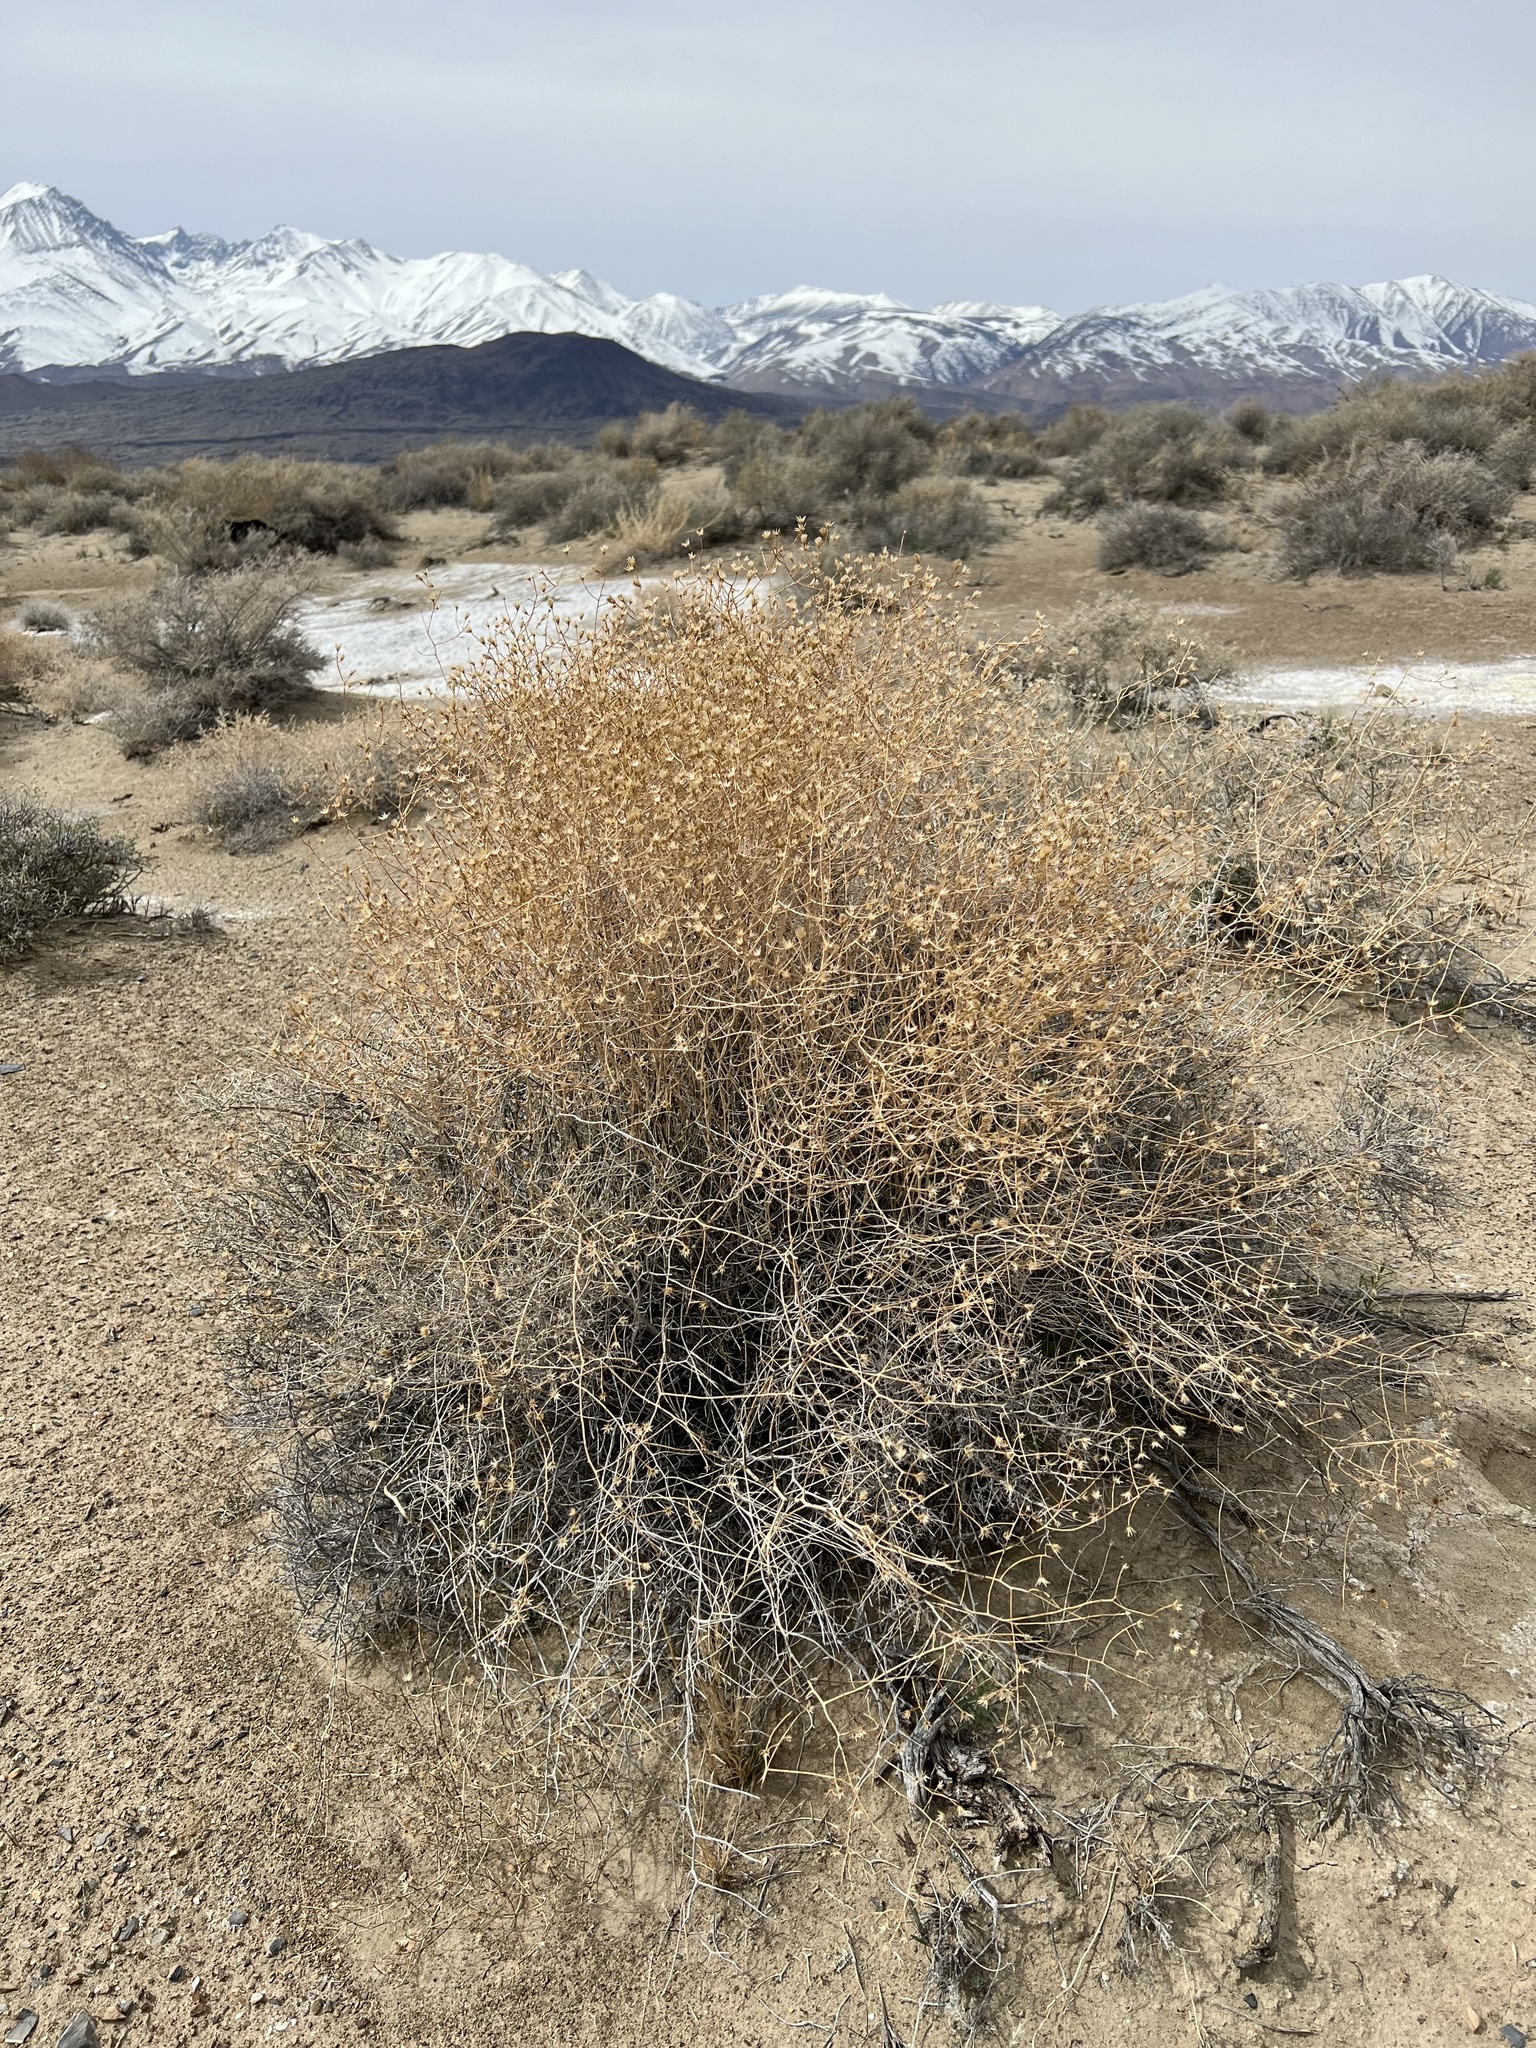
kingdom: Plantae
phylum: Tracheophyta
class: Magnoliopsida
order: Asterales
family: Asteraceae
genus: Leucosyris
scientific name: Leucosyris carnosa
